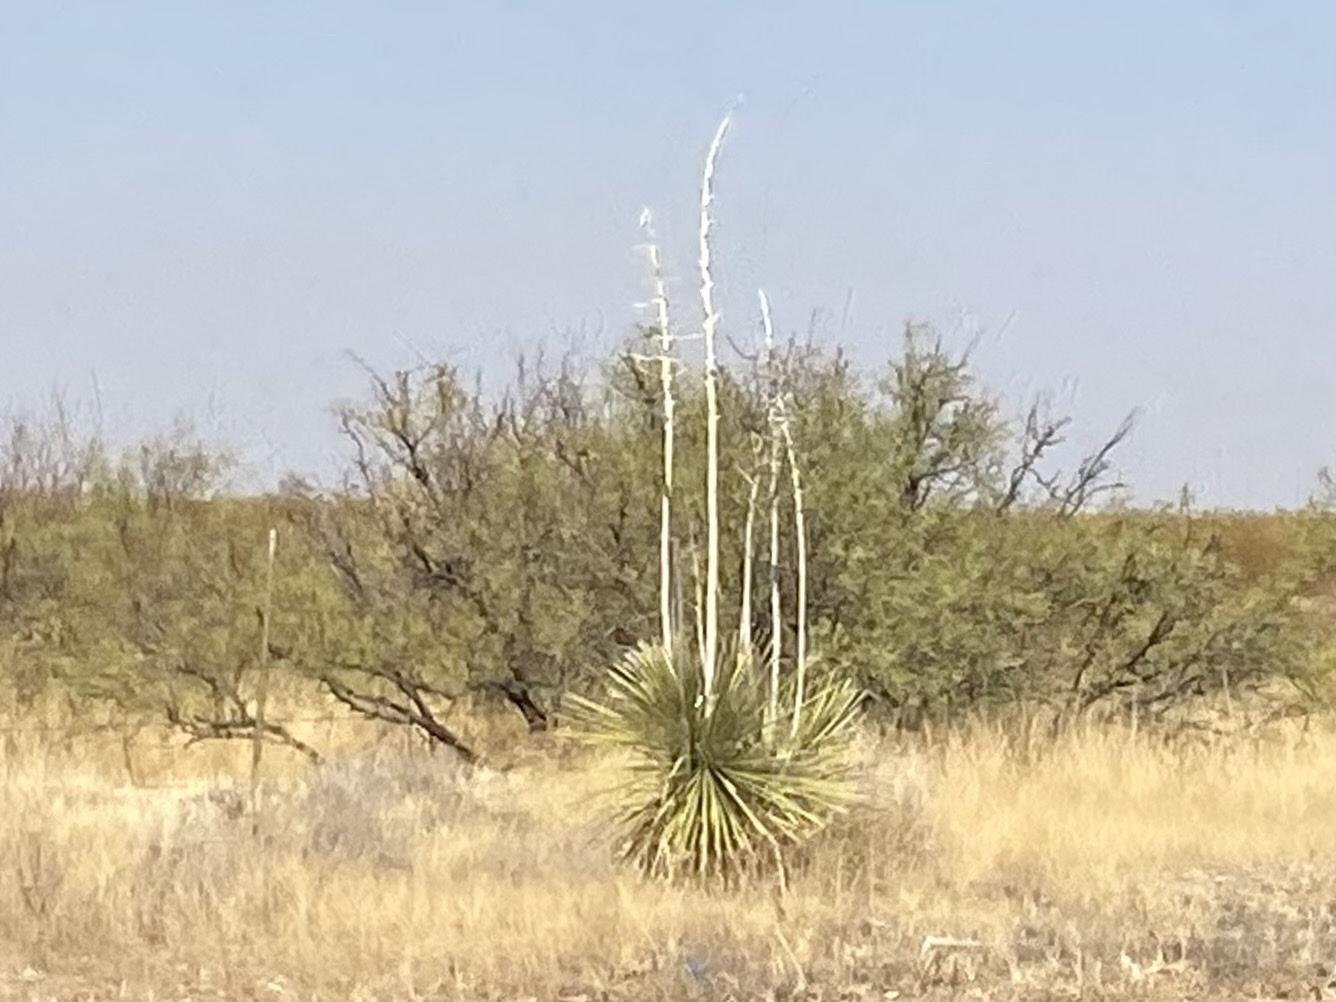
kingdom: Plantae
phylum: Tracheophyta
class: Liliopsida
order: Asparagales
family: Asparagaceae
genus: Yucca
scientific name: Yucca elata
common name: Palmella
